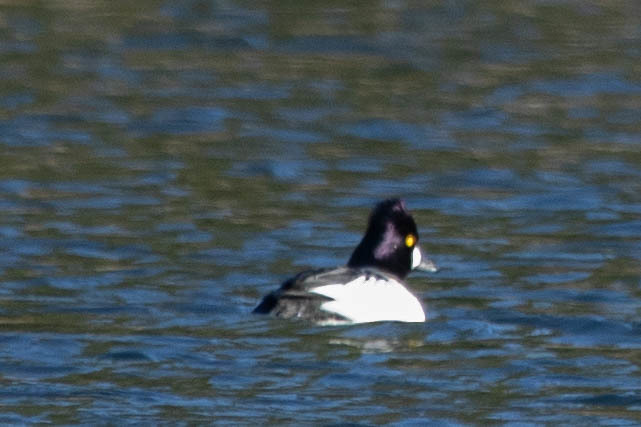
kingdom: Animalia
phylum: Chordata
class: Aves
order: Anseriformes
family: Anatidae
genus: Bucephala
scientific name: Bucephala clangula
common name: Common goldeneye
